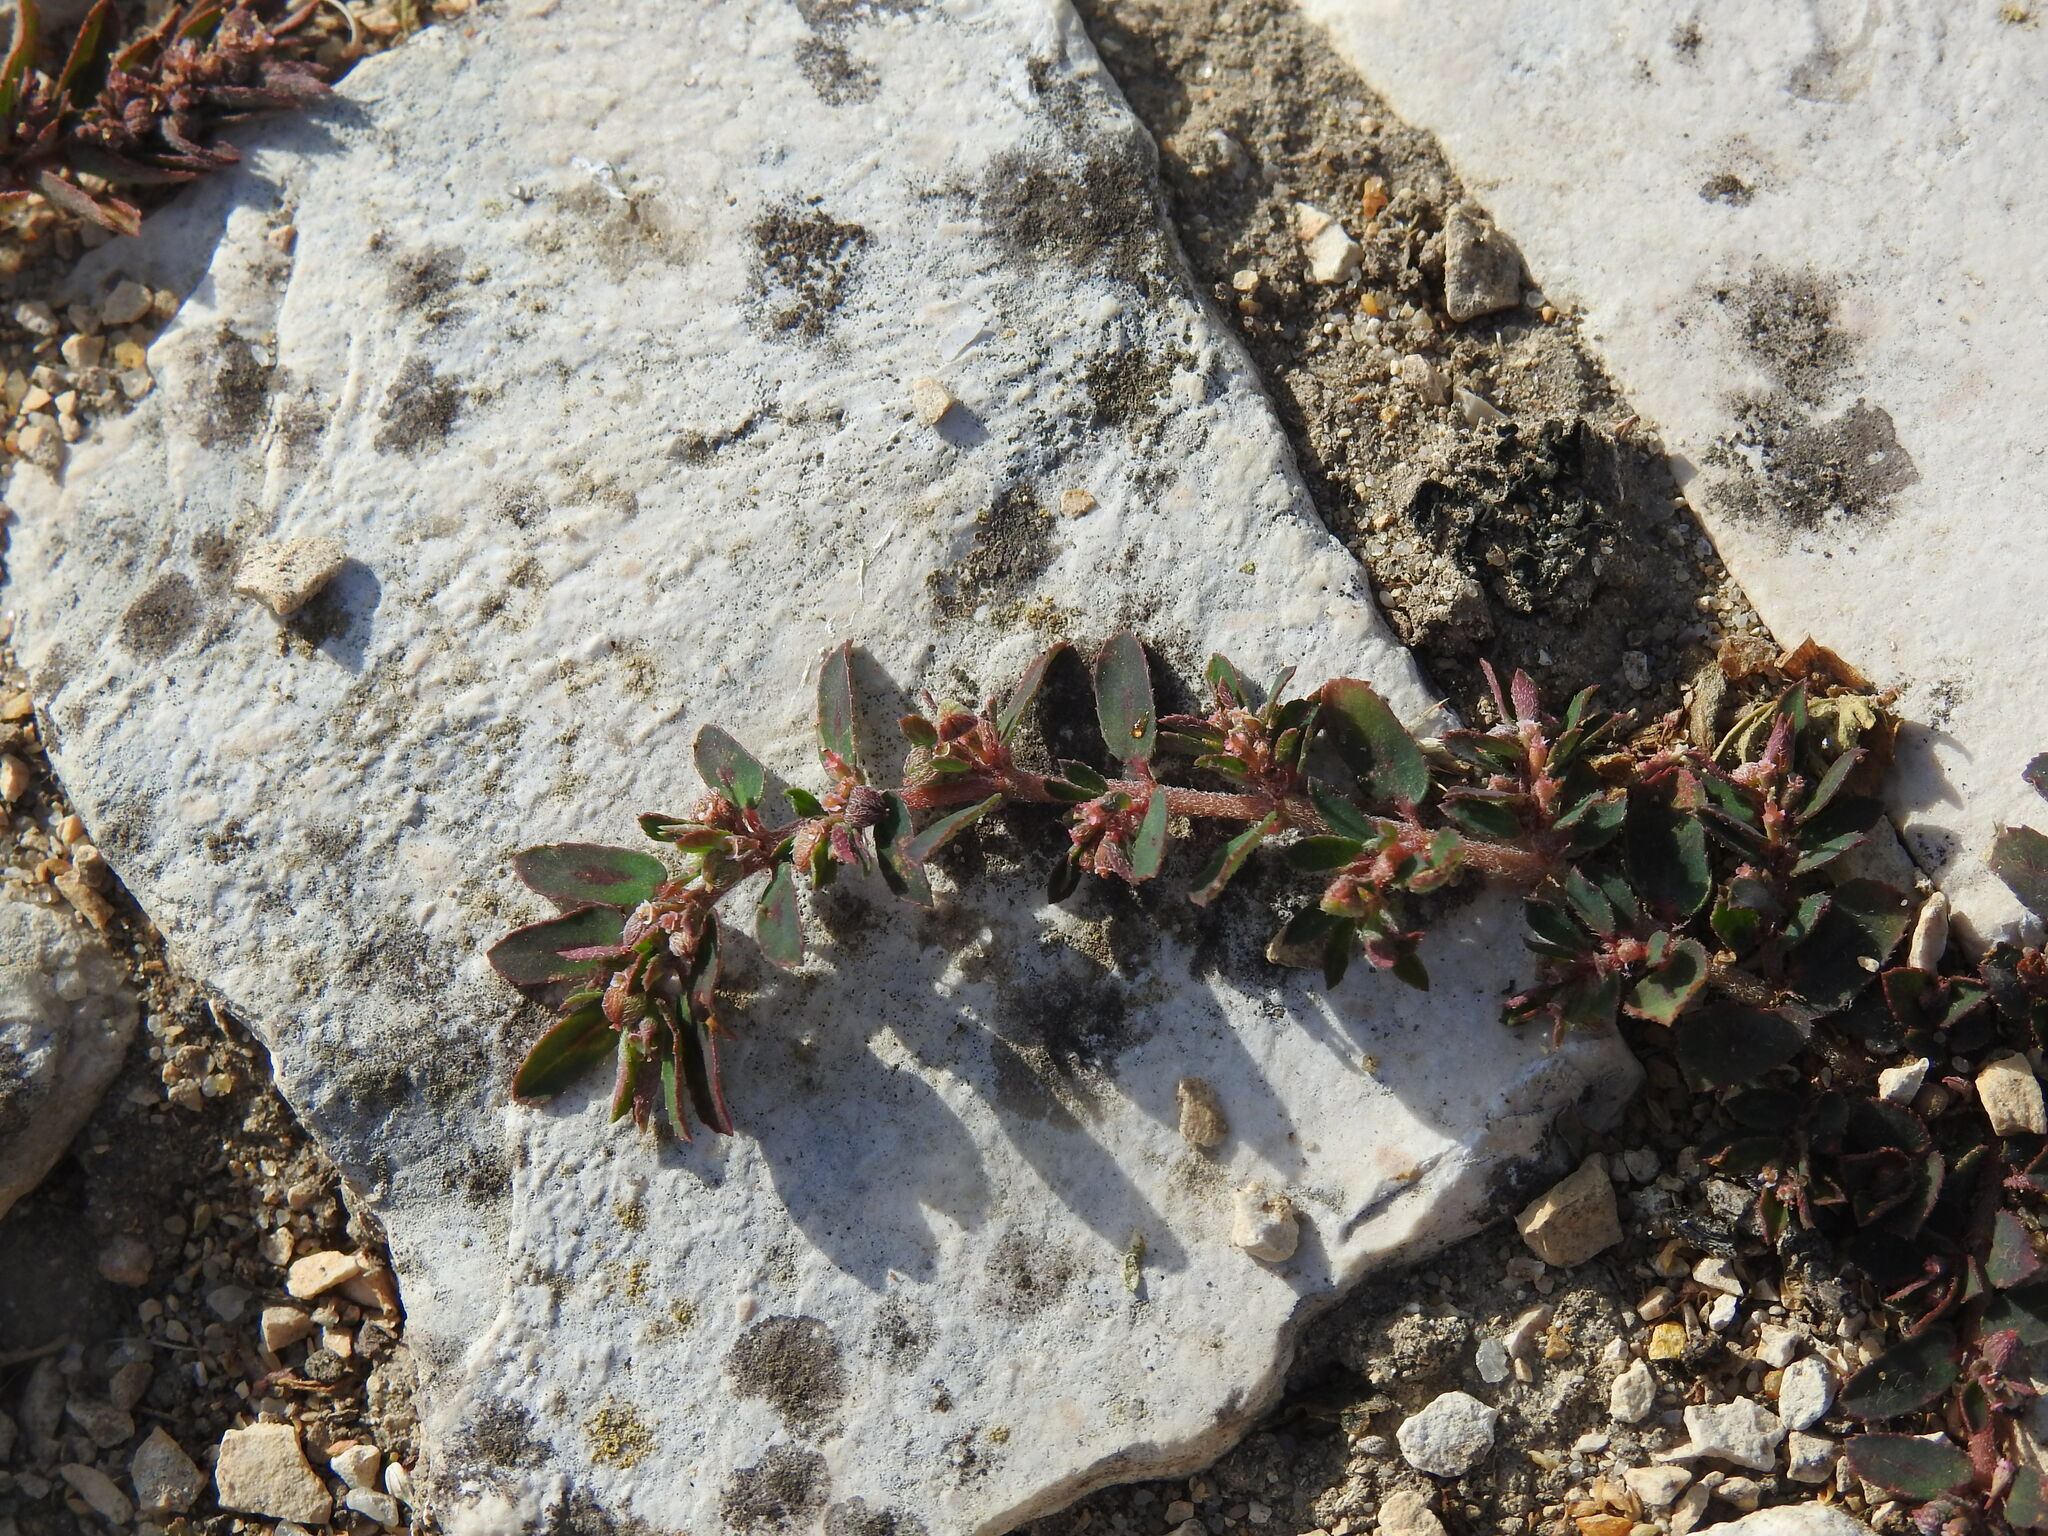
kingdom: Plantae
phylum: Tracheophyta
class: Magnoliopsida
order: Malpighiales
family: Euphorbiaceae
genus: Euphorbia
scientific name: Euphorbia maculata
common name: Spotted spurge
